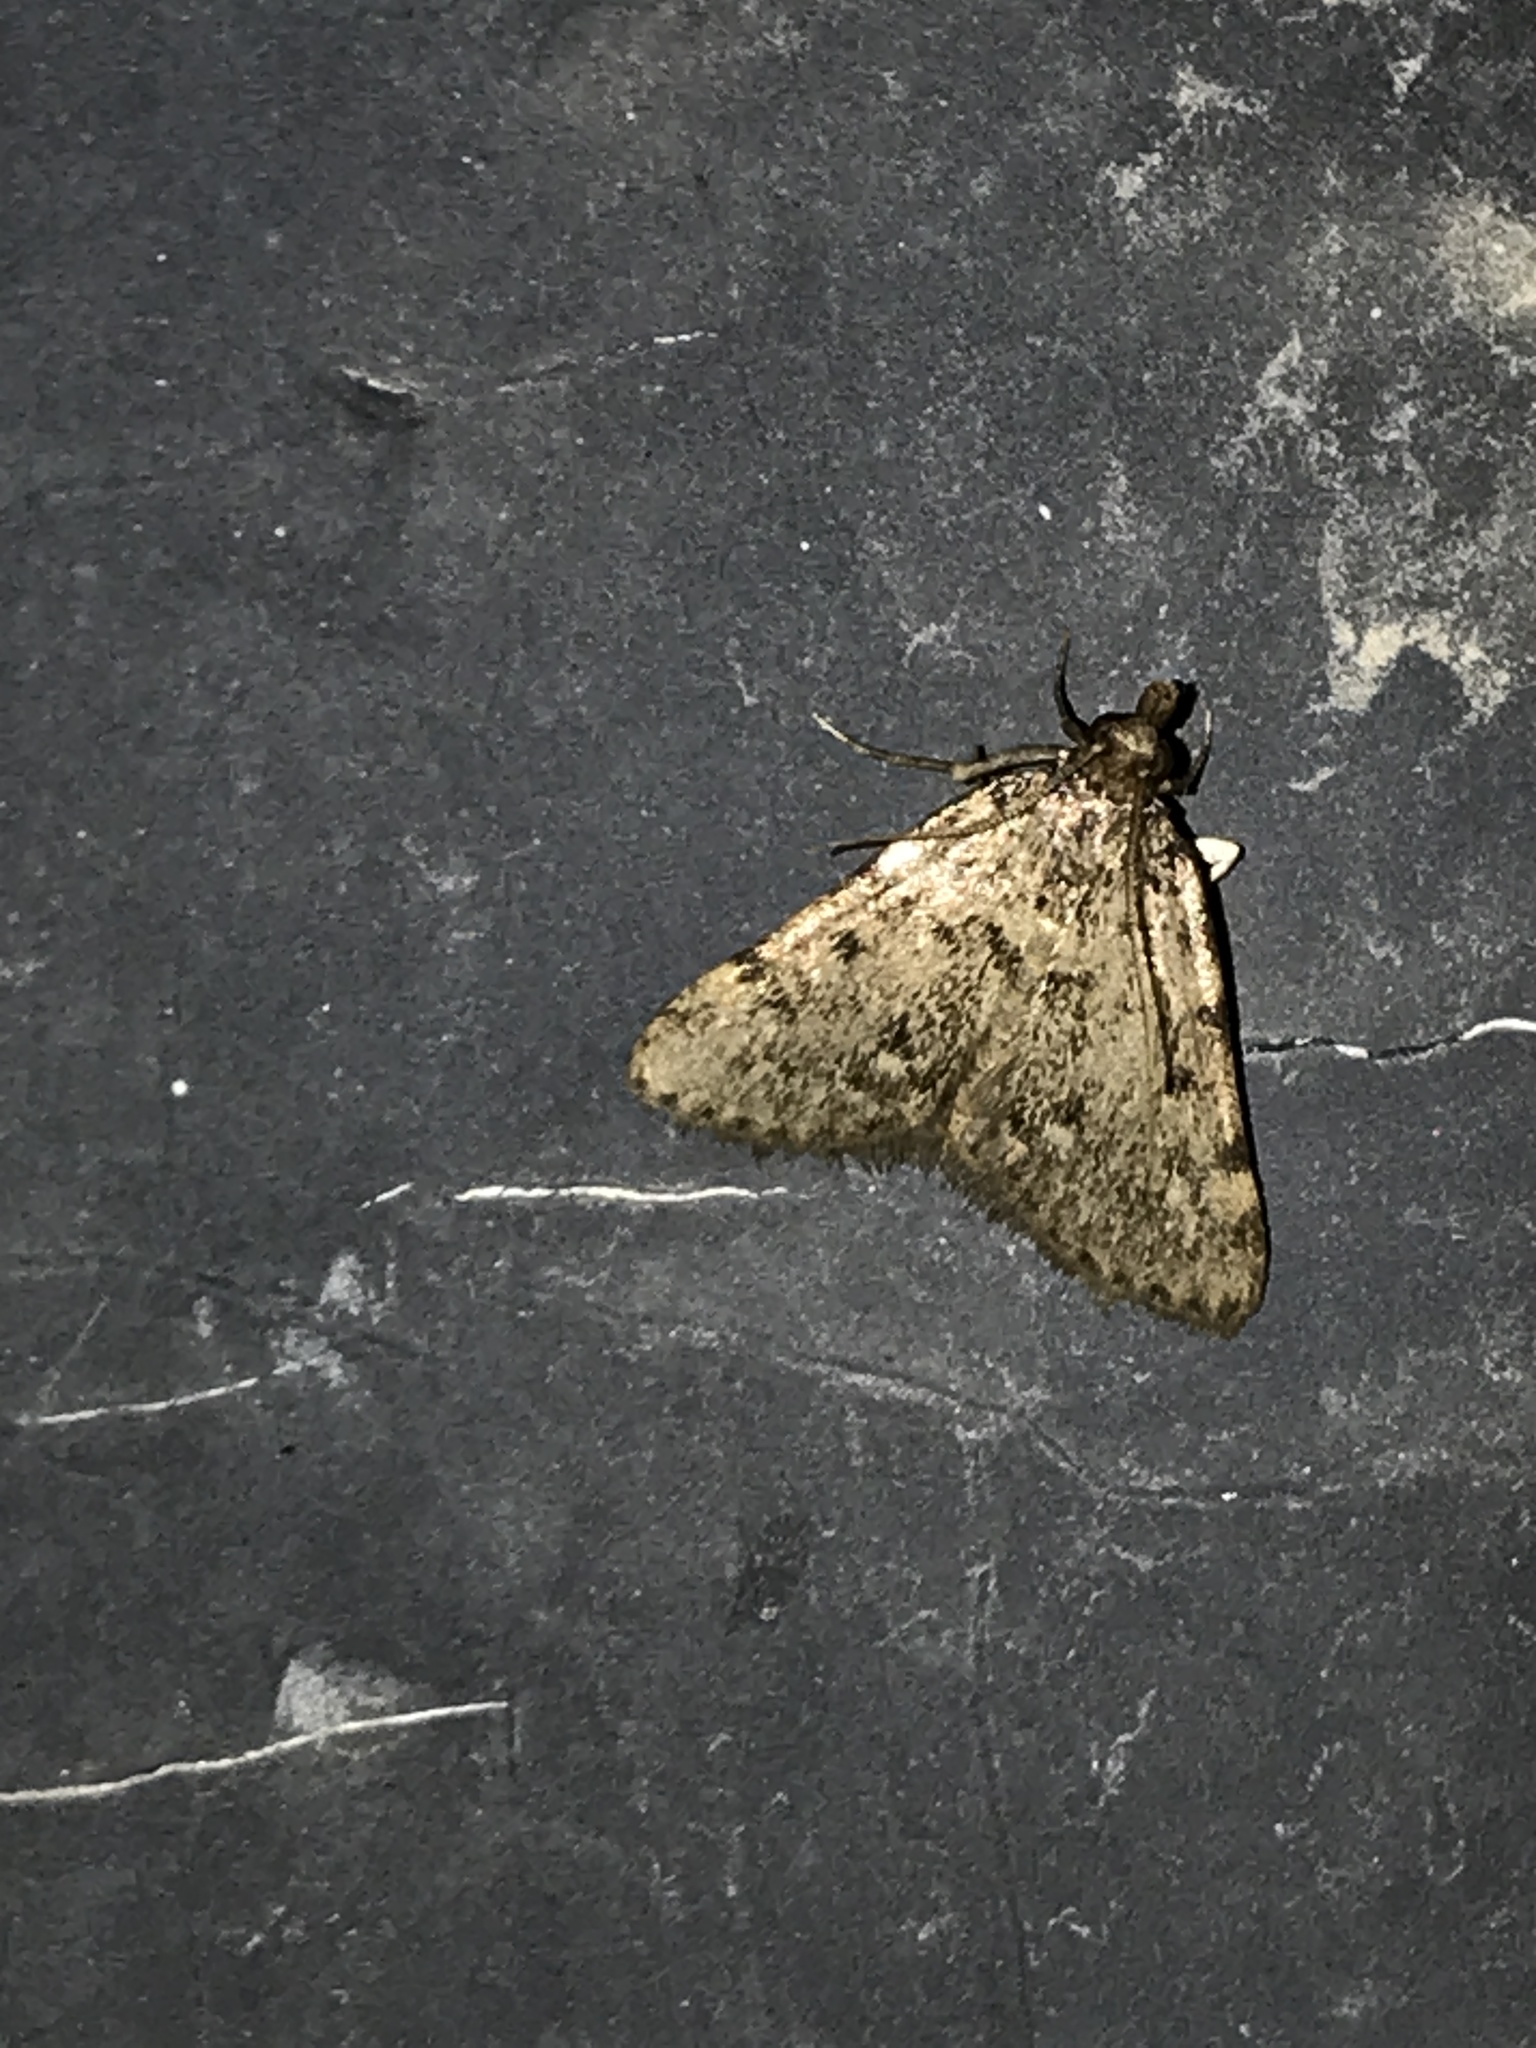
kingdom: Animalia
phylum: Arthropoda
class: Insecta
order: Lepidoptera
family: Pyralidae
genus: Aglossa
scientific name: Aglossa pinguinalis
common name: Large tabby
